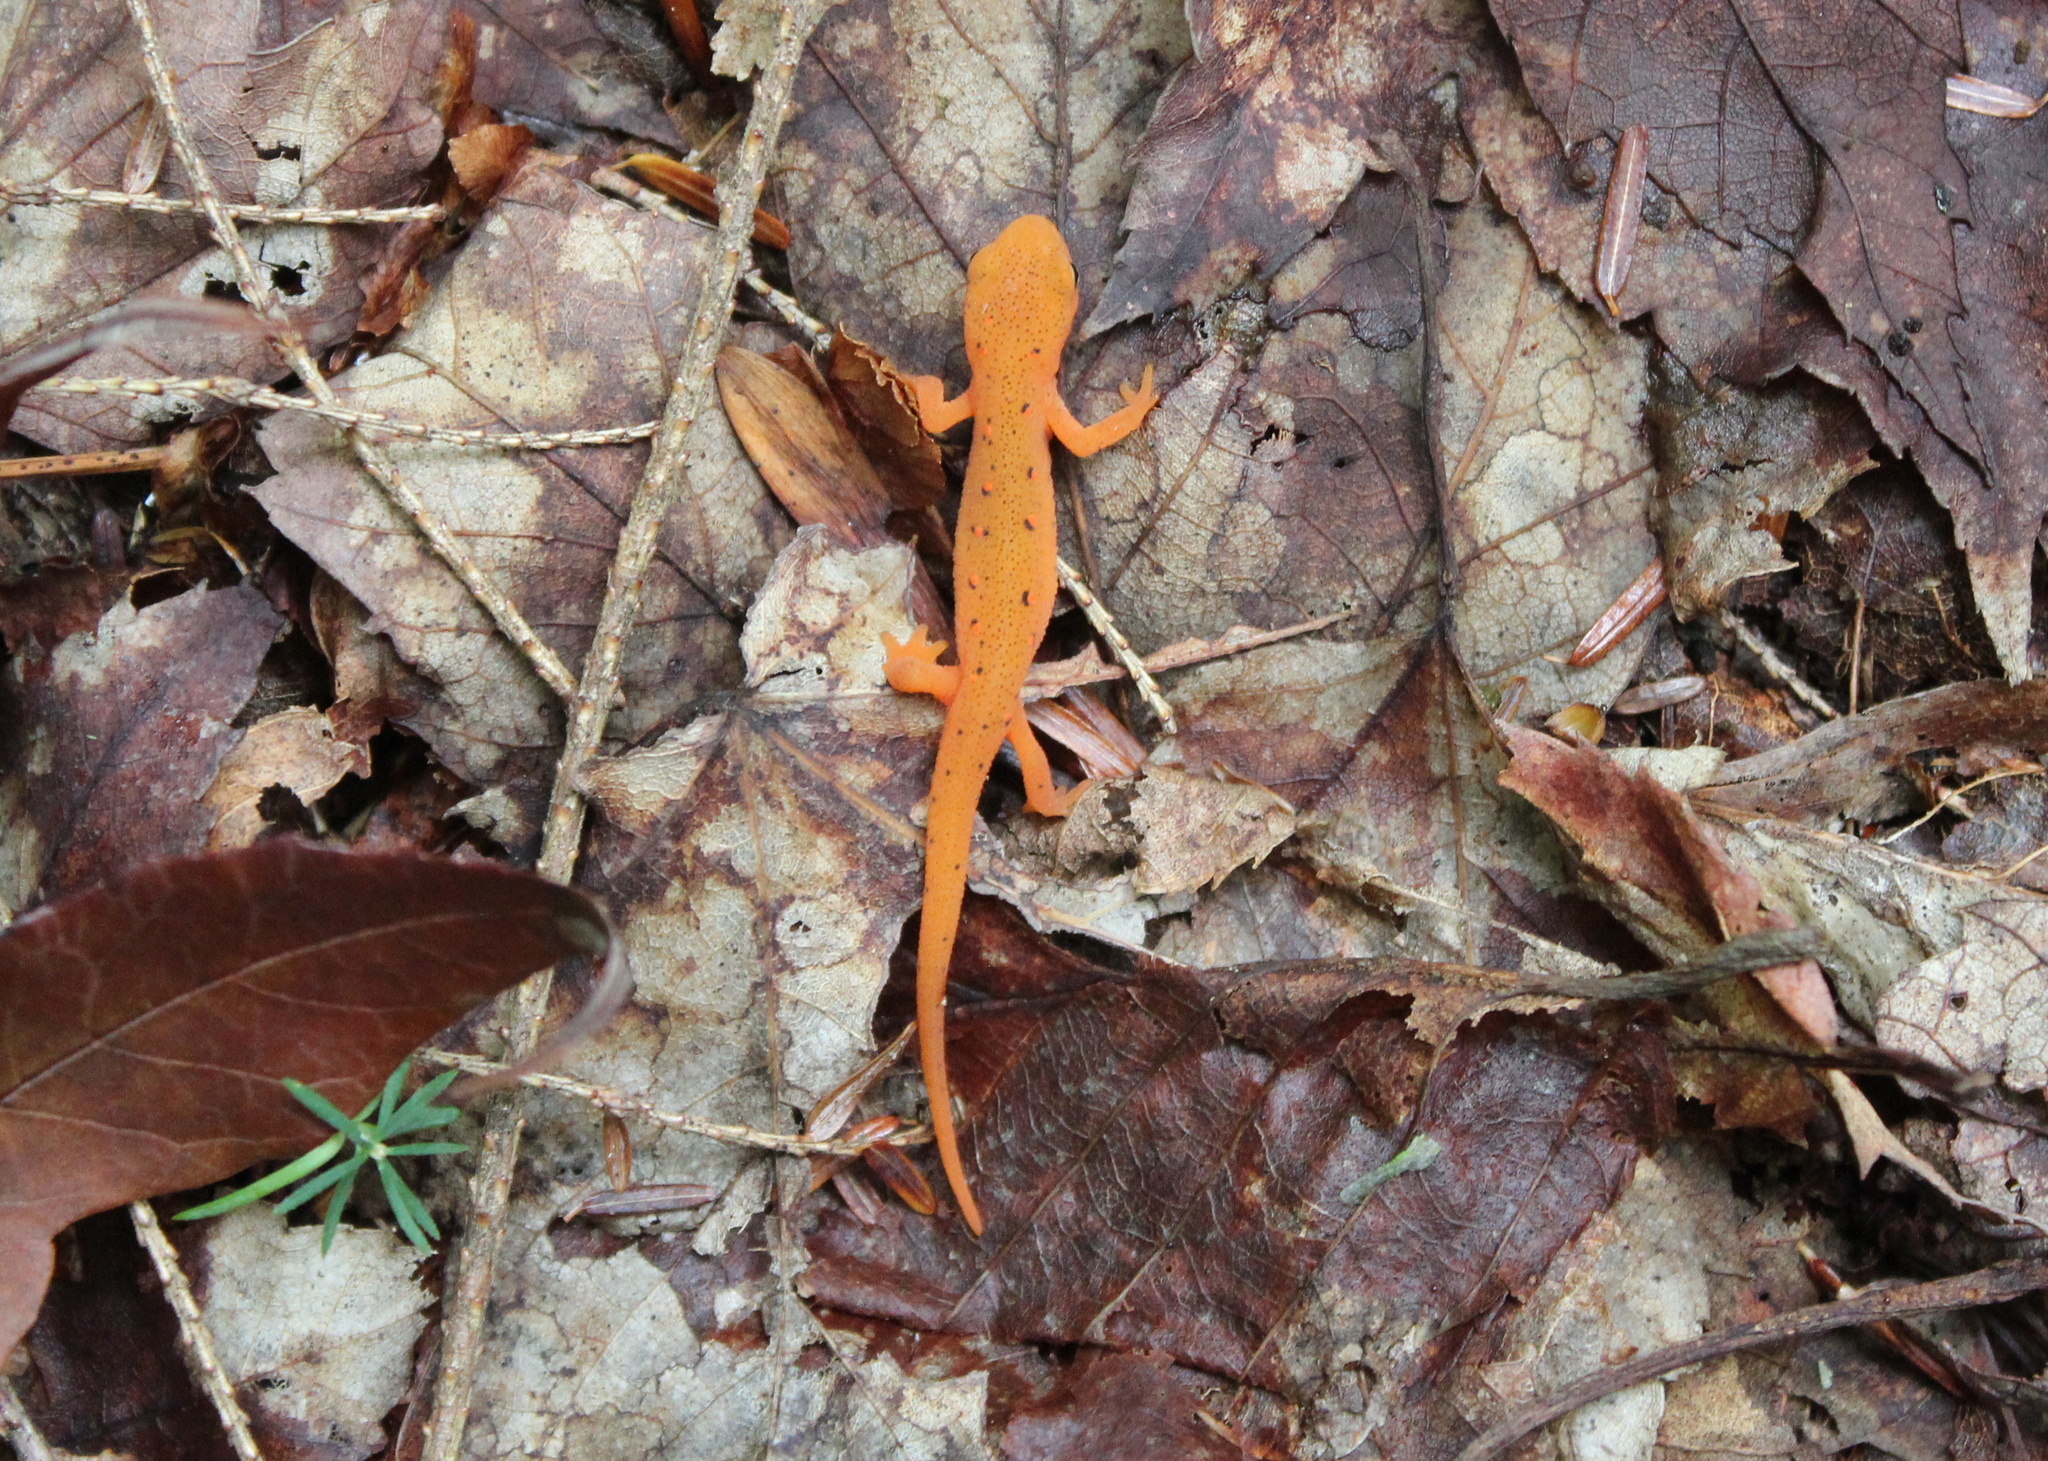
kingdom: Animalia
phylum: Chordata
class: Amphibia
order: Caudata
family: Salamandridae
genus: Notophthalmus
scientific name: Notophthalmus viridescens
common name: Eastern newt
